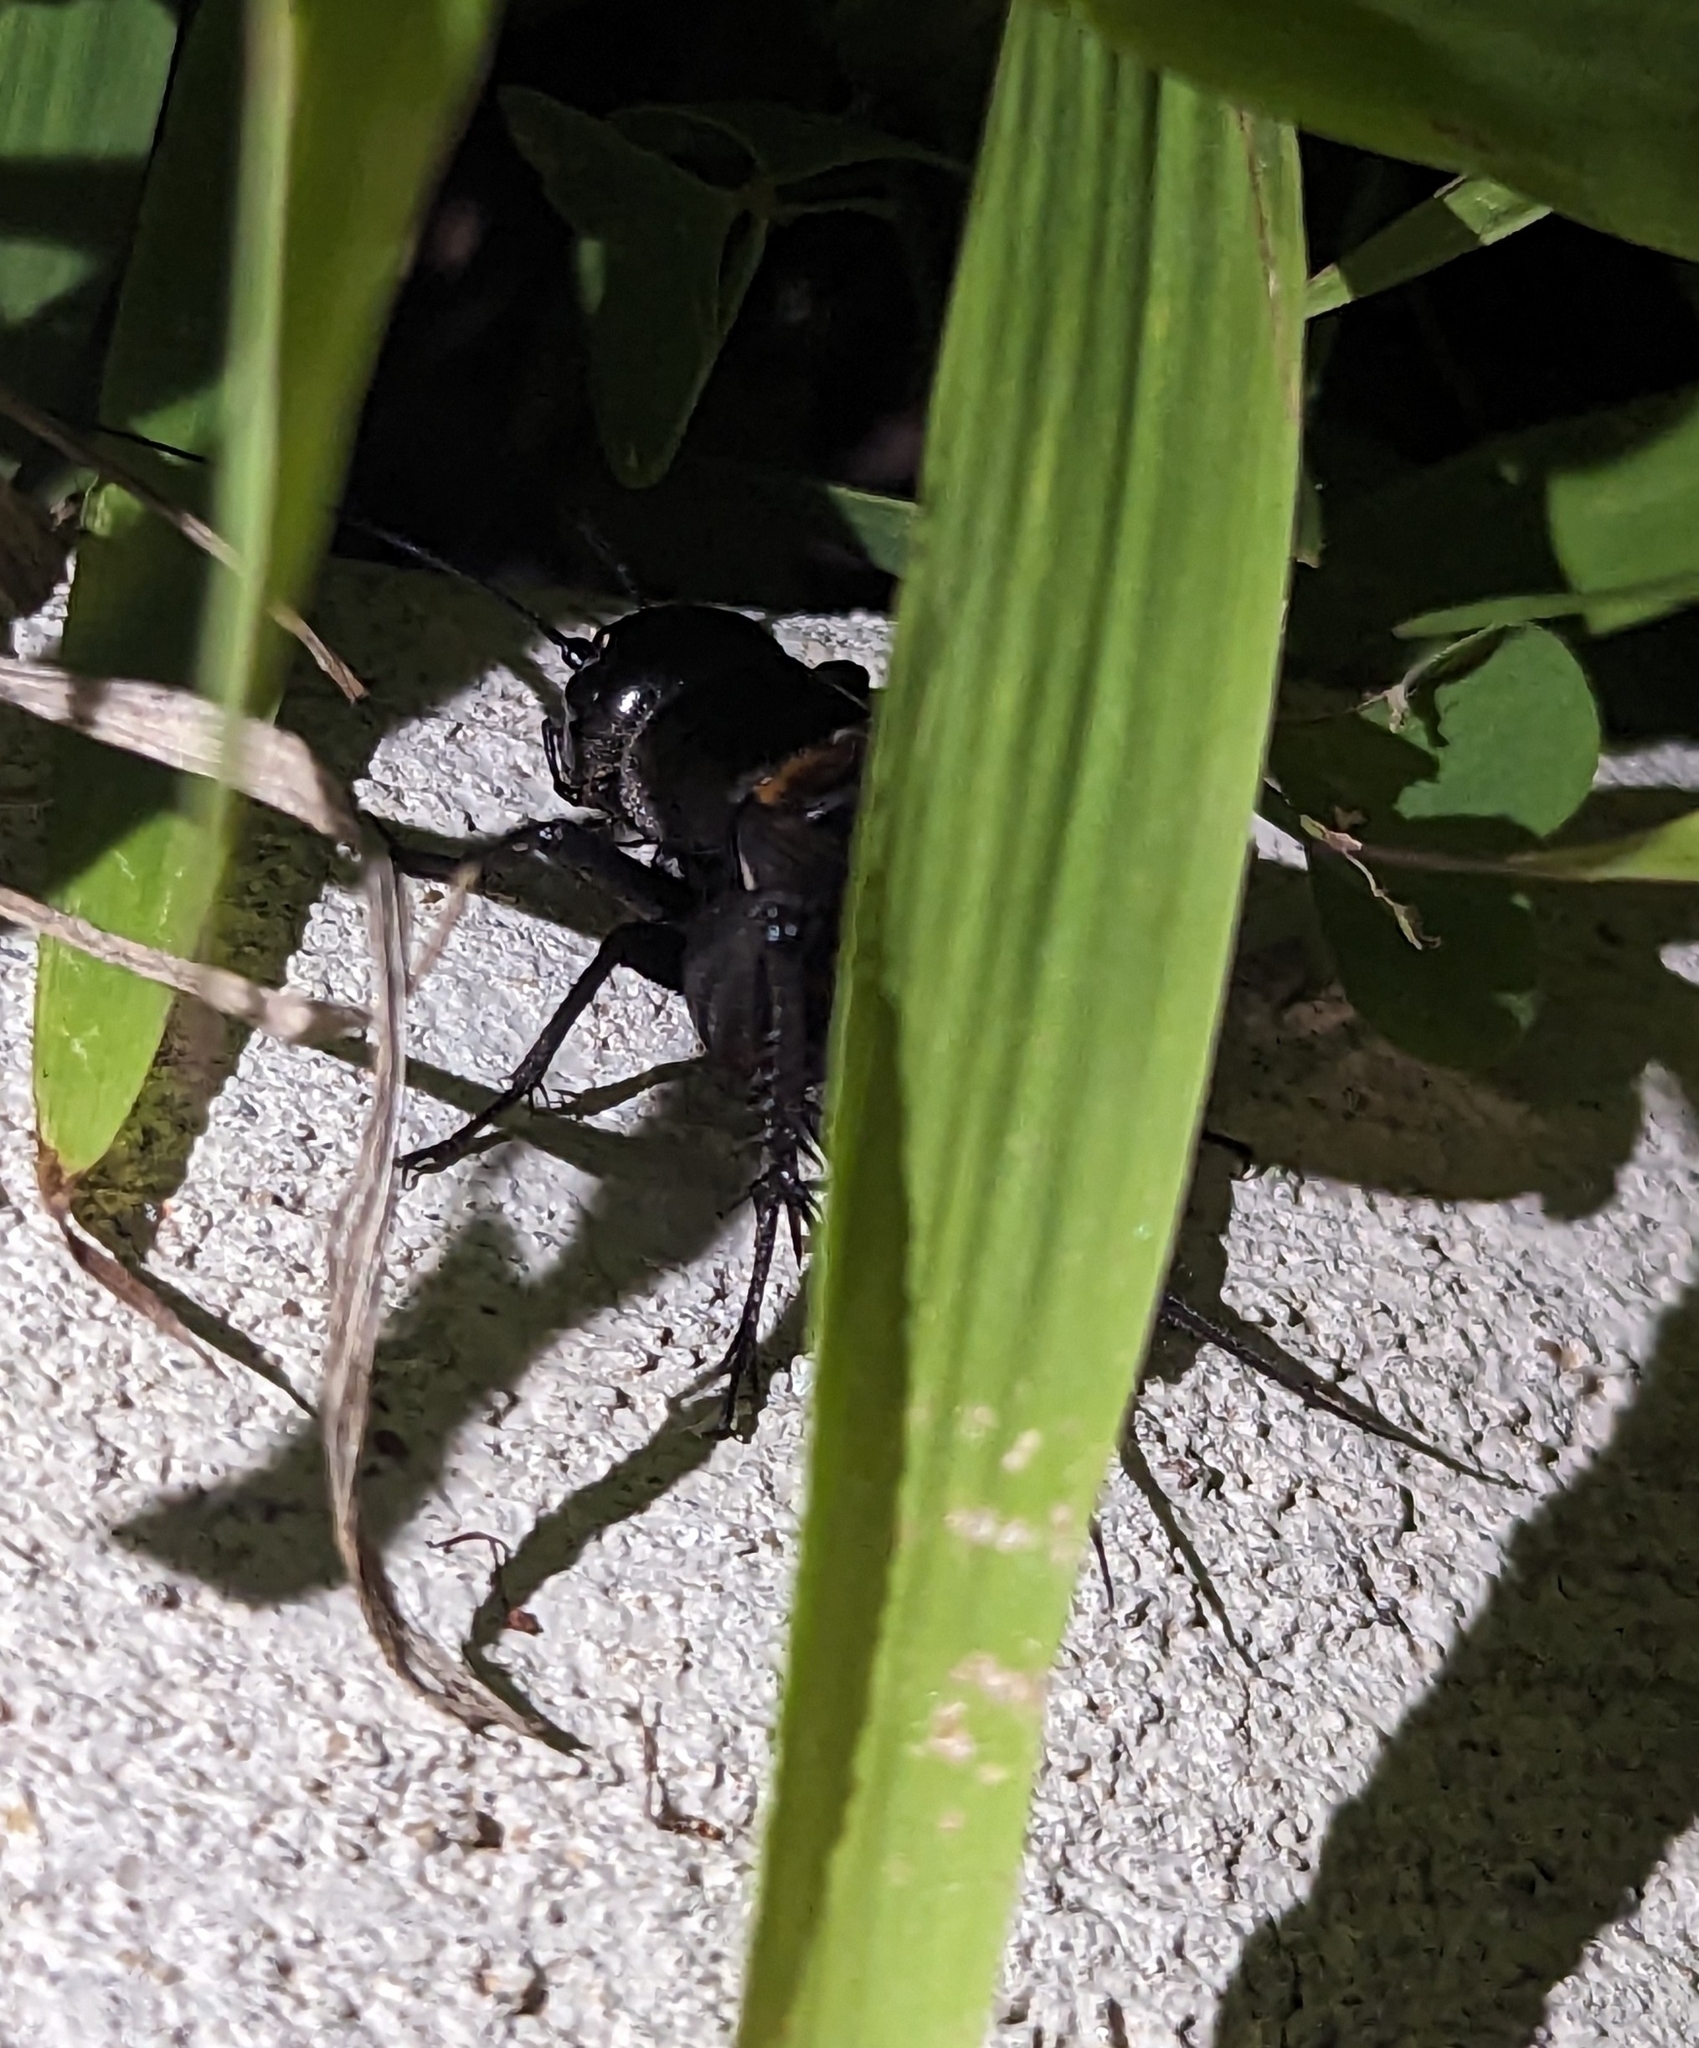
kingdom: Animalia
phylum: Arthropoda
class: Insecta
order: Orthoptera
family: Gryllidae
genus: Gryllus
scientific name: Gryllus veletis
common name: Spring field cricket
